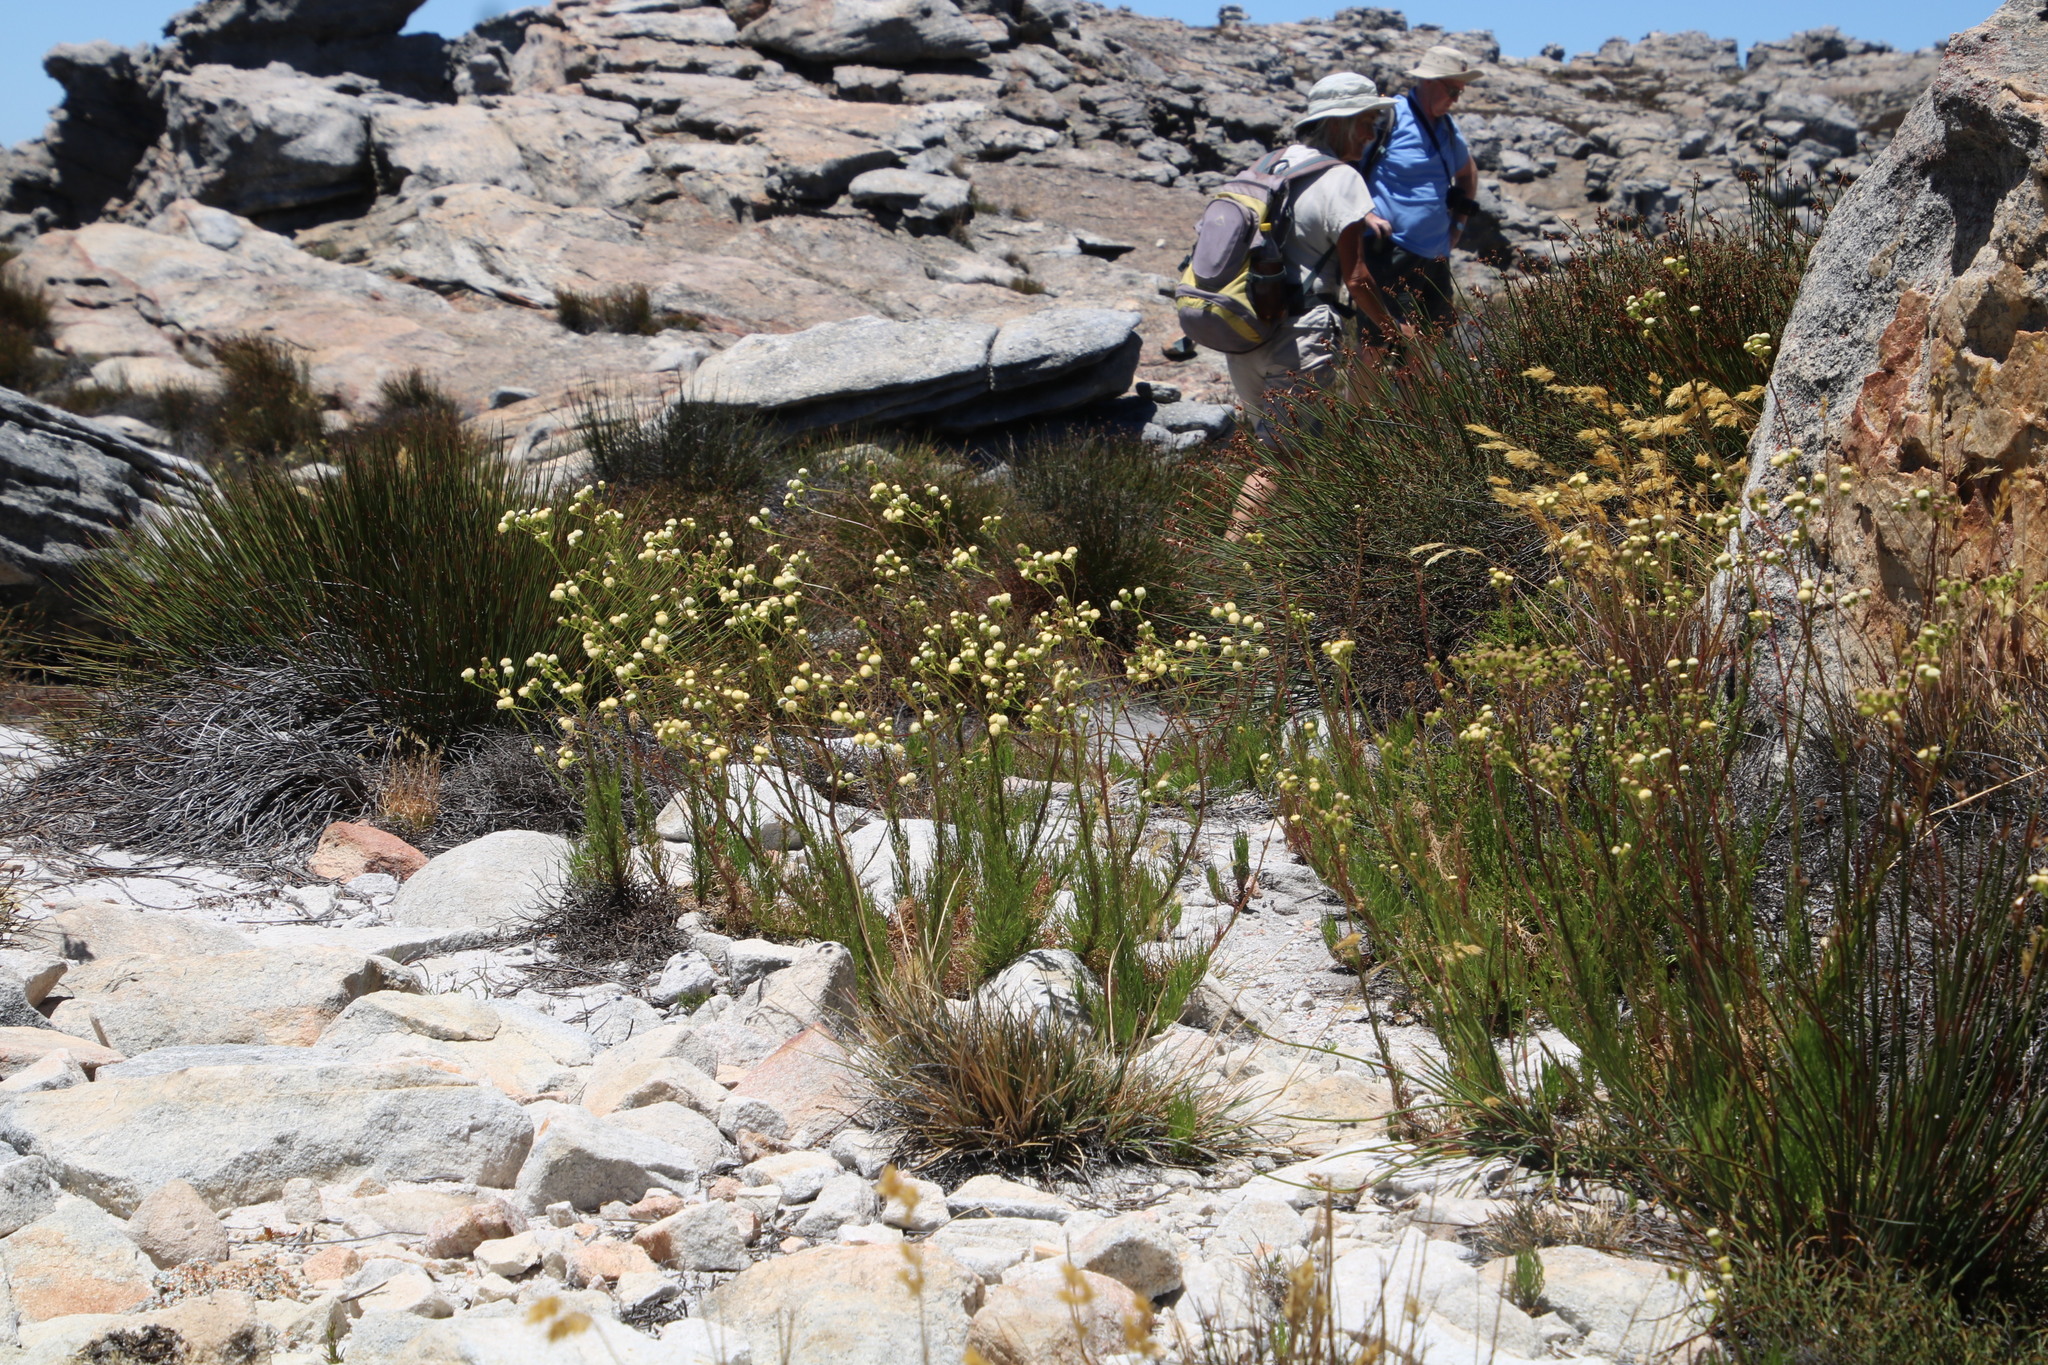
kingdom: Plantae
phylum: Tracheophyta
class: Magnoliopsida
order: Asterales
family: Asteraceae
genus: Senecio
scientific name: Senecio paniculatus
